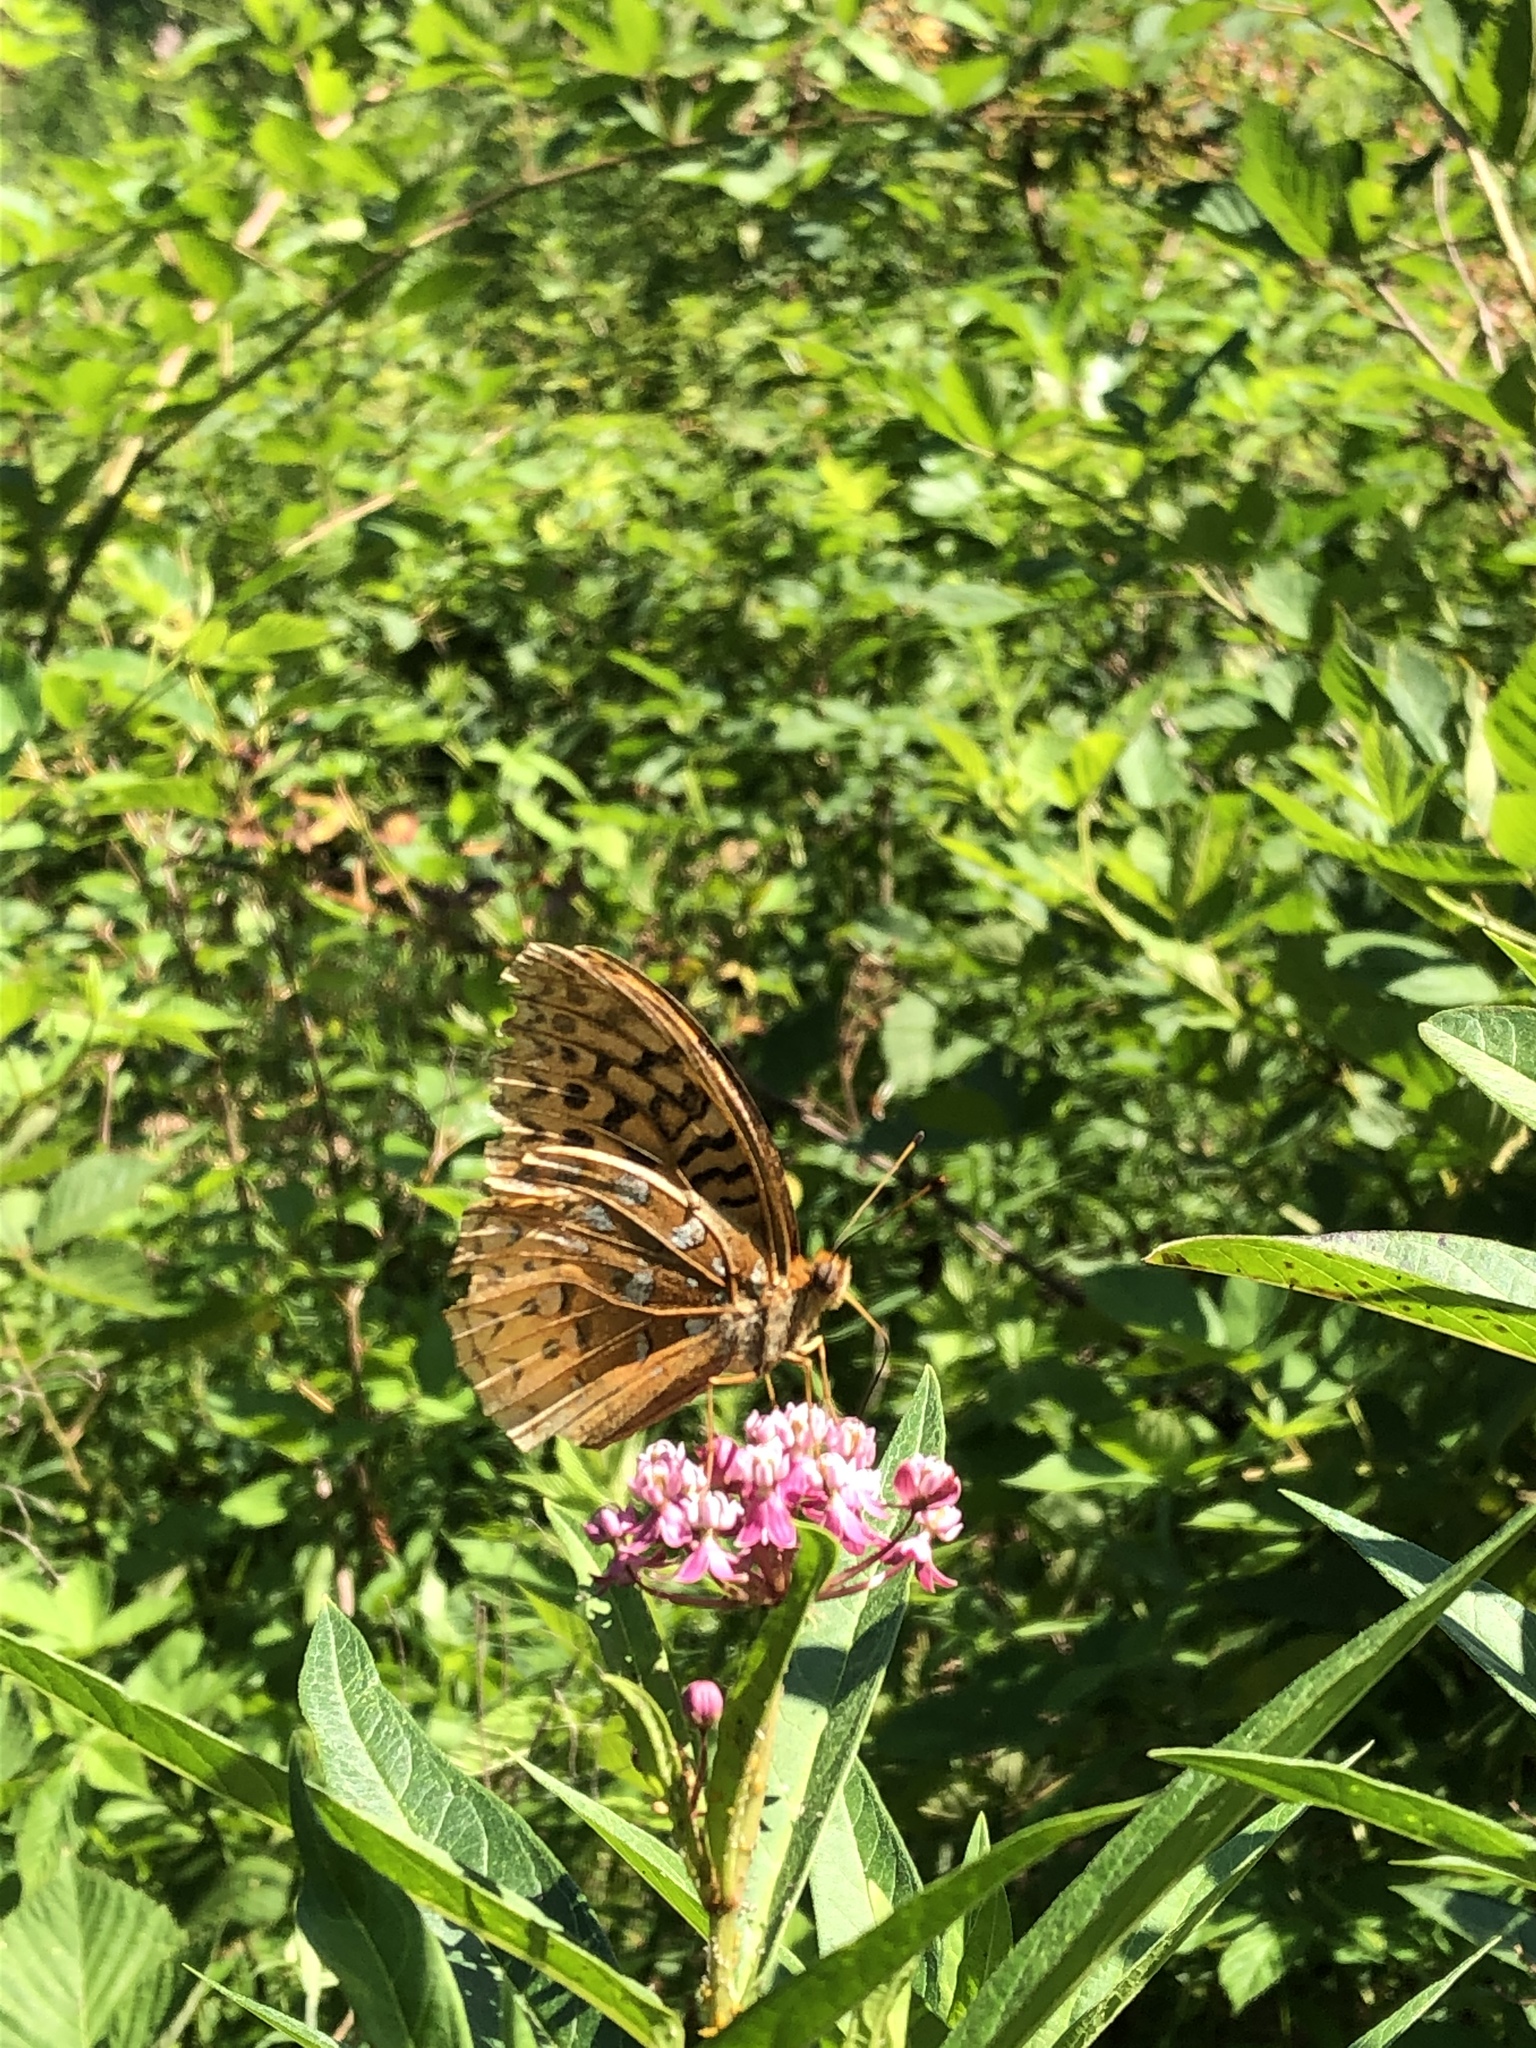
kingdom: Animalia
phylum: Arthropoda
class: Insecta
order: Lepidoptera
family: Nymphalidae
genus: Speyeria
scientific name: Speyeria cybele
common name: Great spangled fritillary
